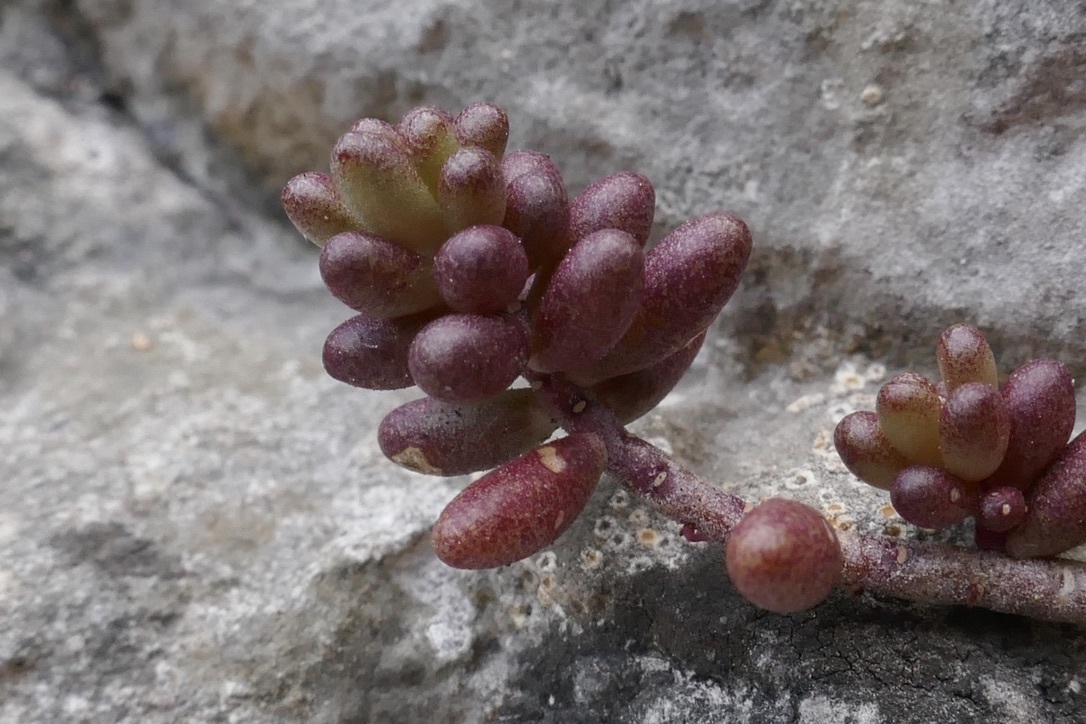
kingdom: Plantae
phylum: Tracheophyta
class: Magnoliopsida
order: Saxifragales
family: Crassulaceae
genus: Sedum
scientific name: Sedum album
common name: White stonecrop
